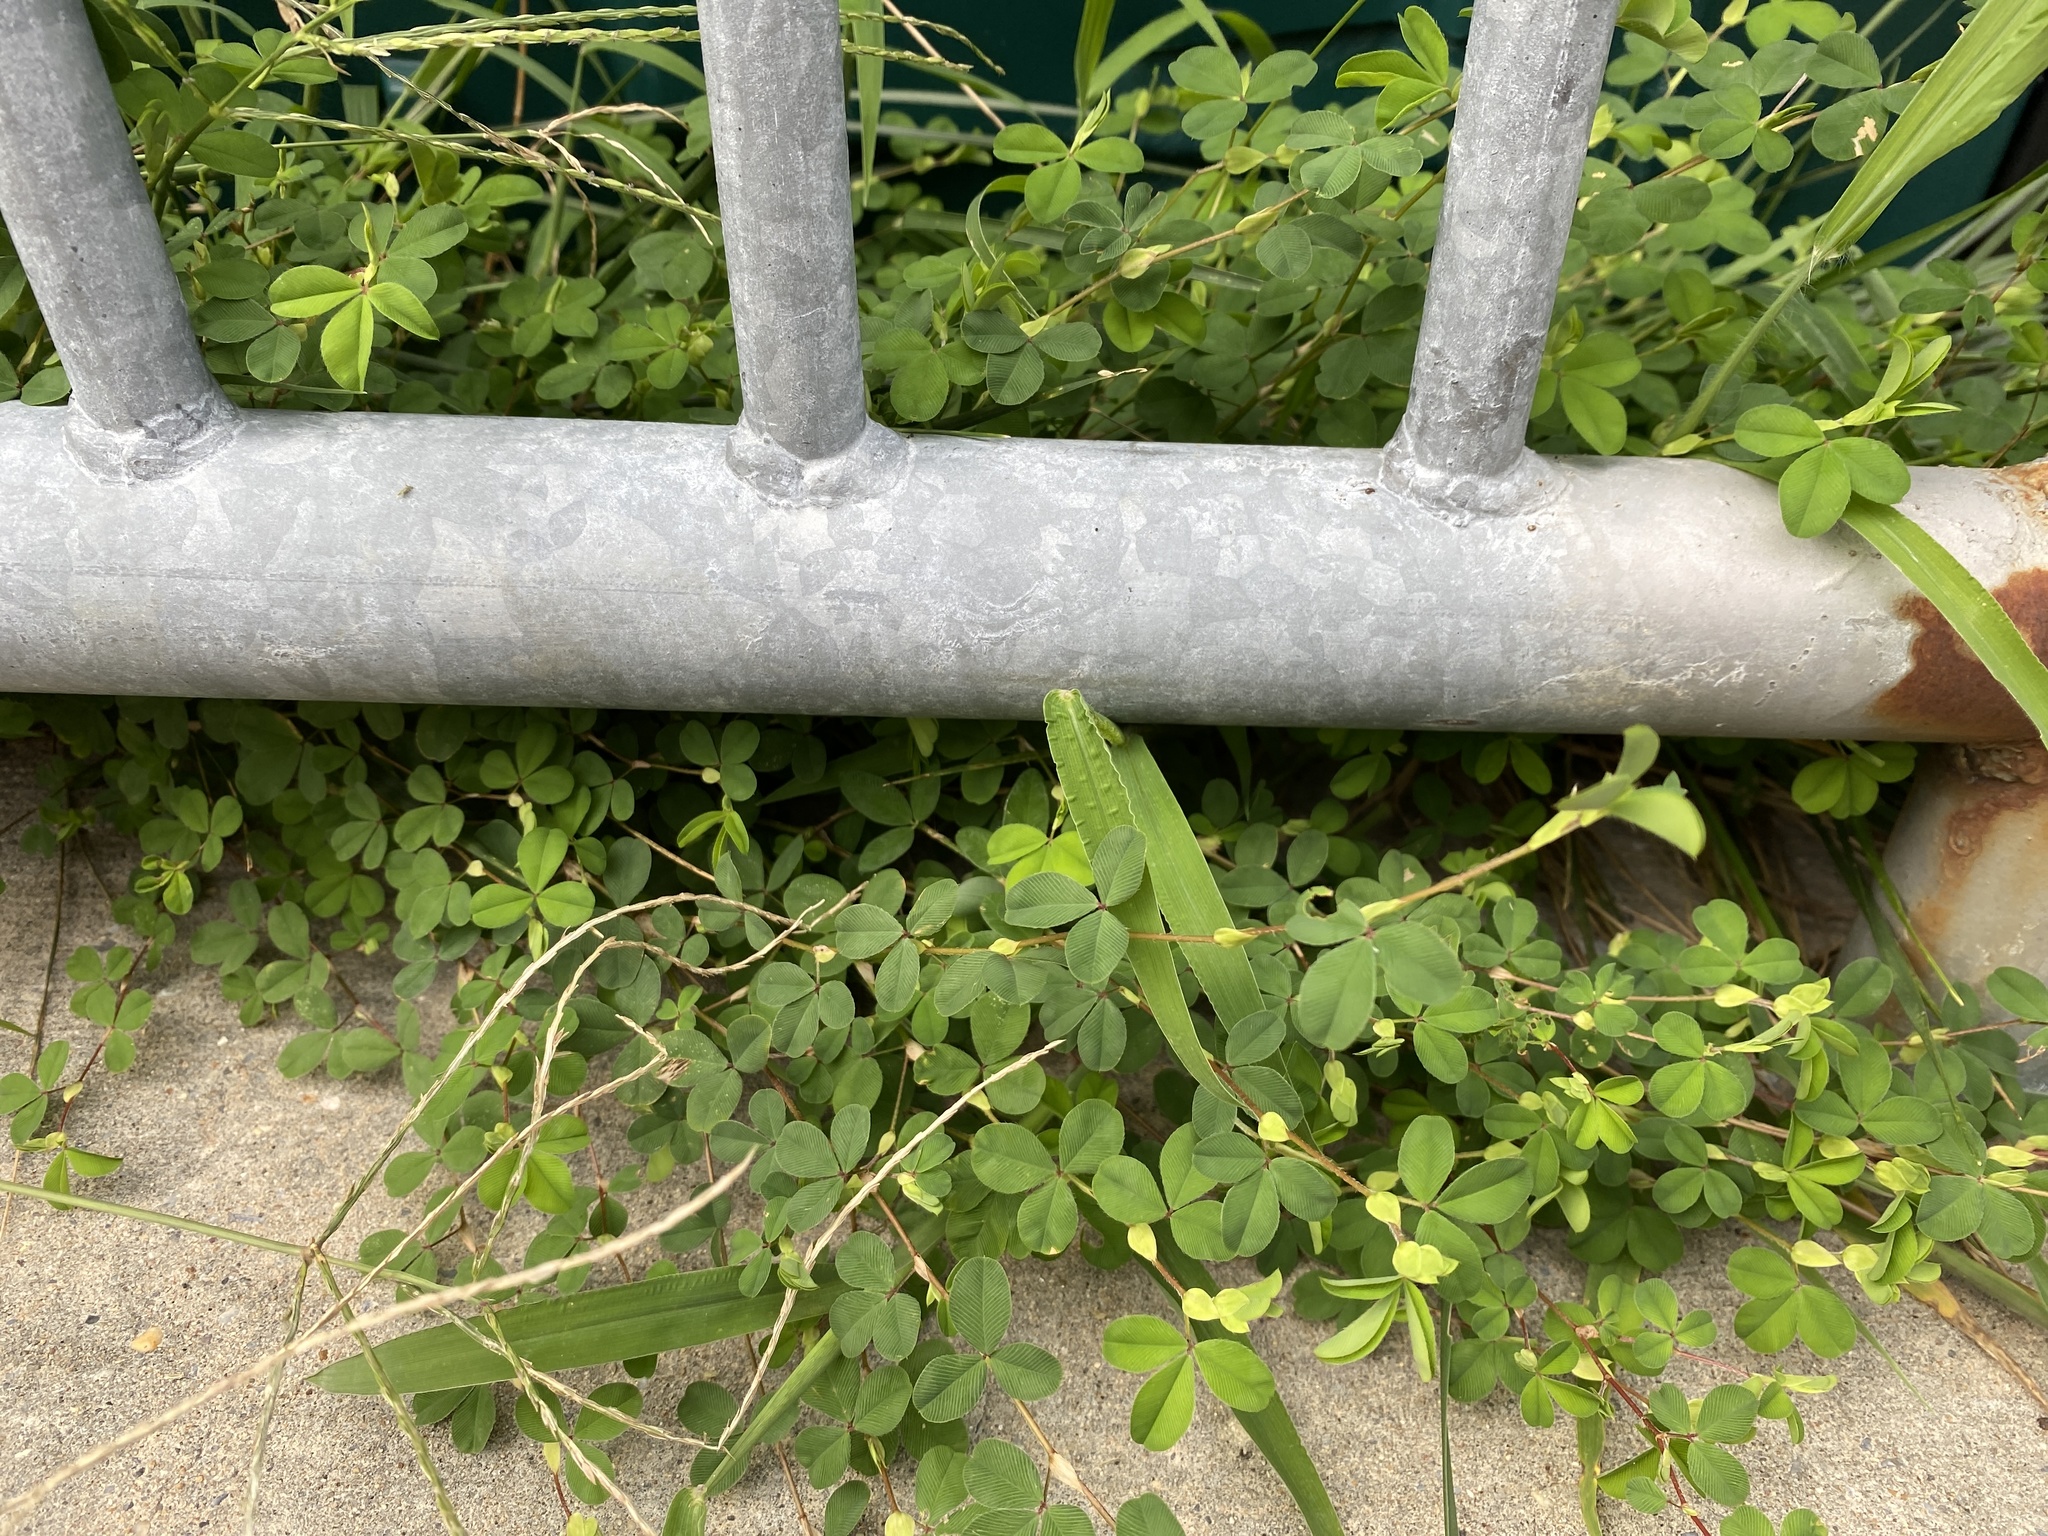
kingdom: Plantae
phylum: Tracheophyta
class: Magnoliopsida
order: Fabales
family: Fabaceae
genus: Kummerowia
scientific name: Kummerowia stipulacea
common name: Korean clover
